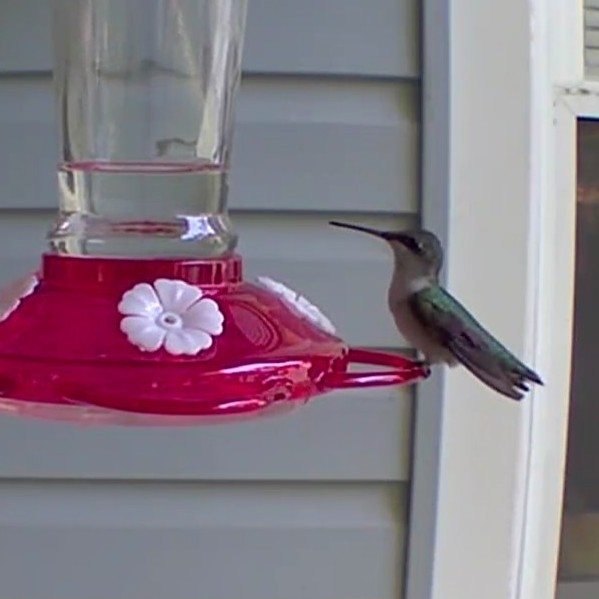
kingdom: Animalia
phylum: Chordata
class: Aves
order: Apodiformes
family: Trochilidae
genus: Archilochus
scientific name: Archilochus colubris
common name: Ruby-throated hummingbird
